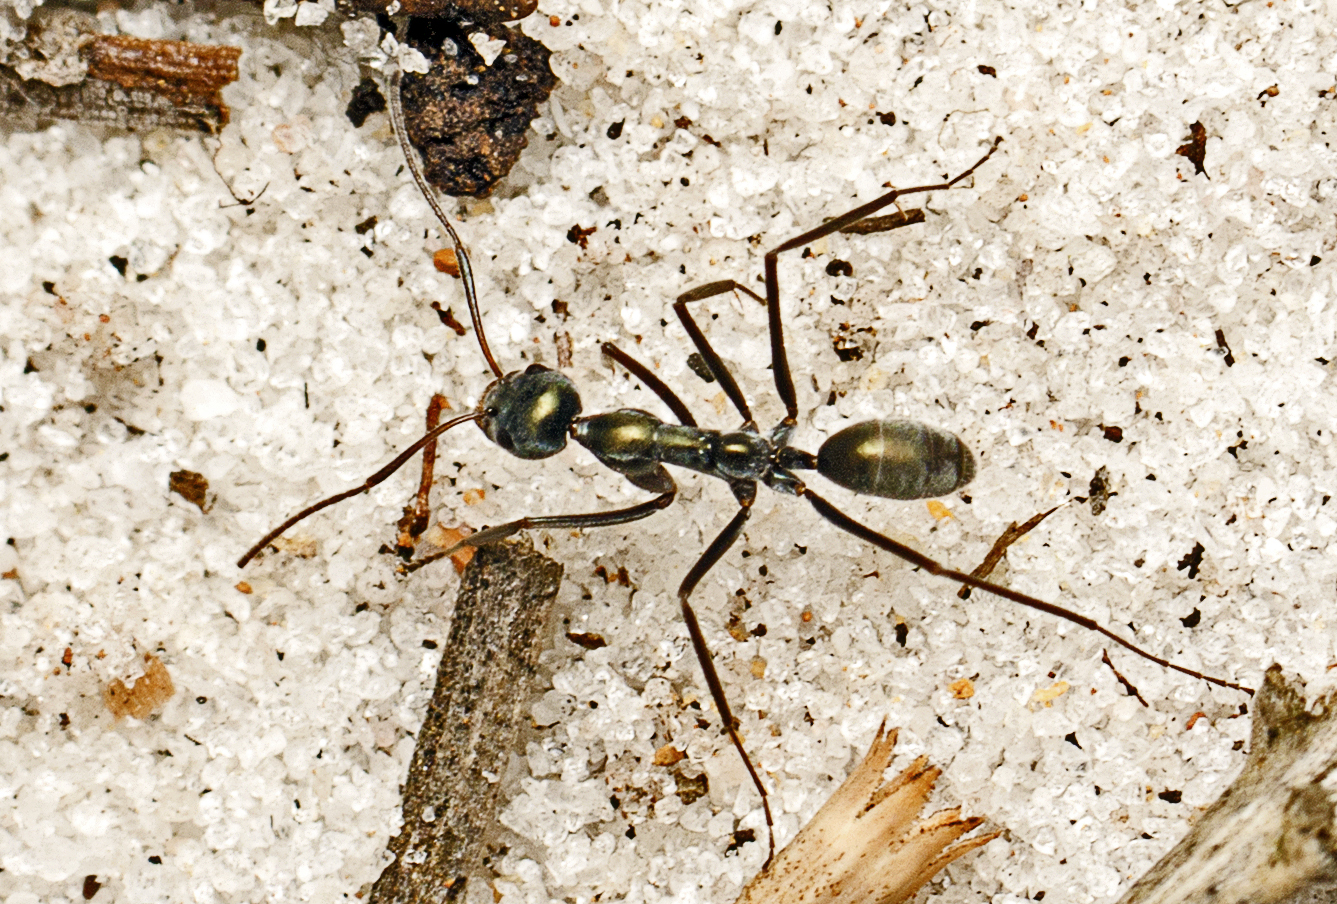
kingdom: Animalia
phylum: Arthropoda
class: Insecta
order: Hymenoptera
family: Formicidae
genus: Iridomyrmex
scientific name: Iridomyrmex
